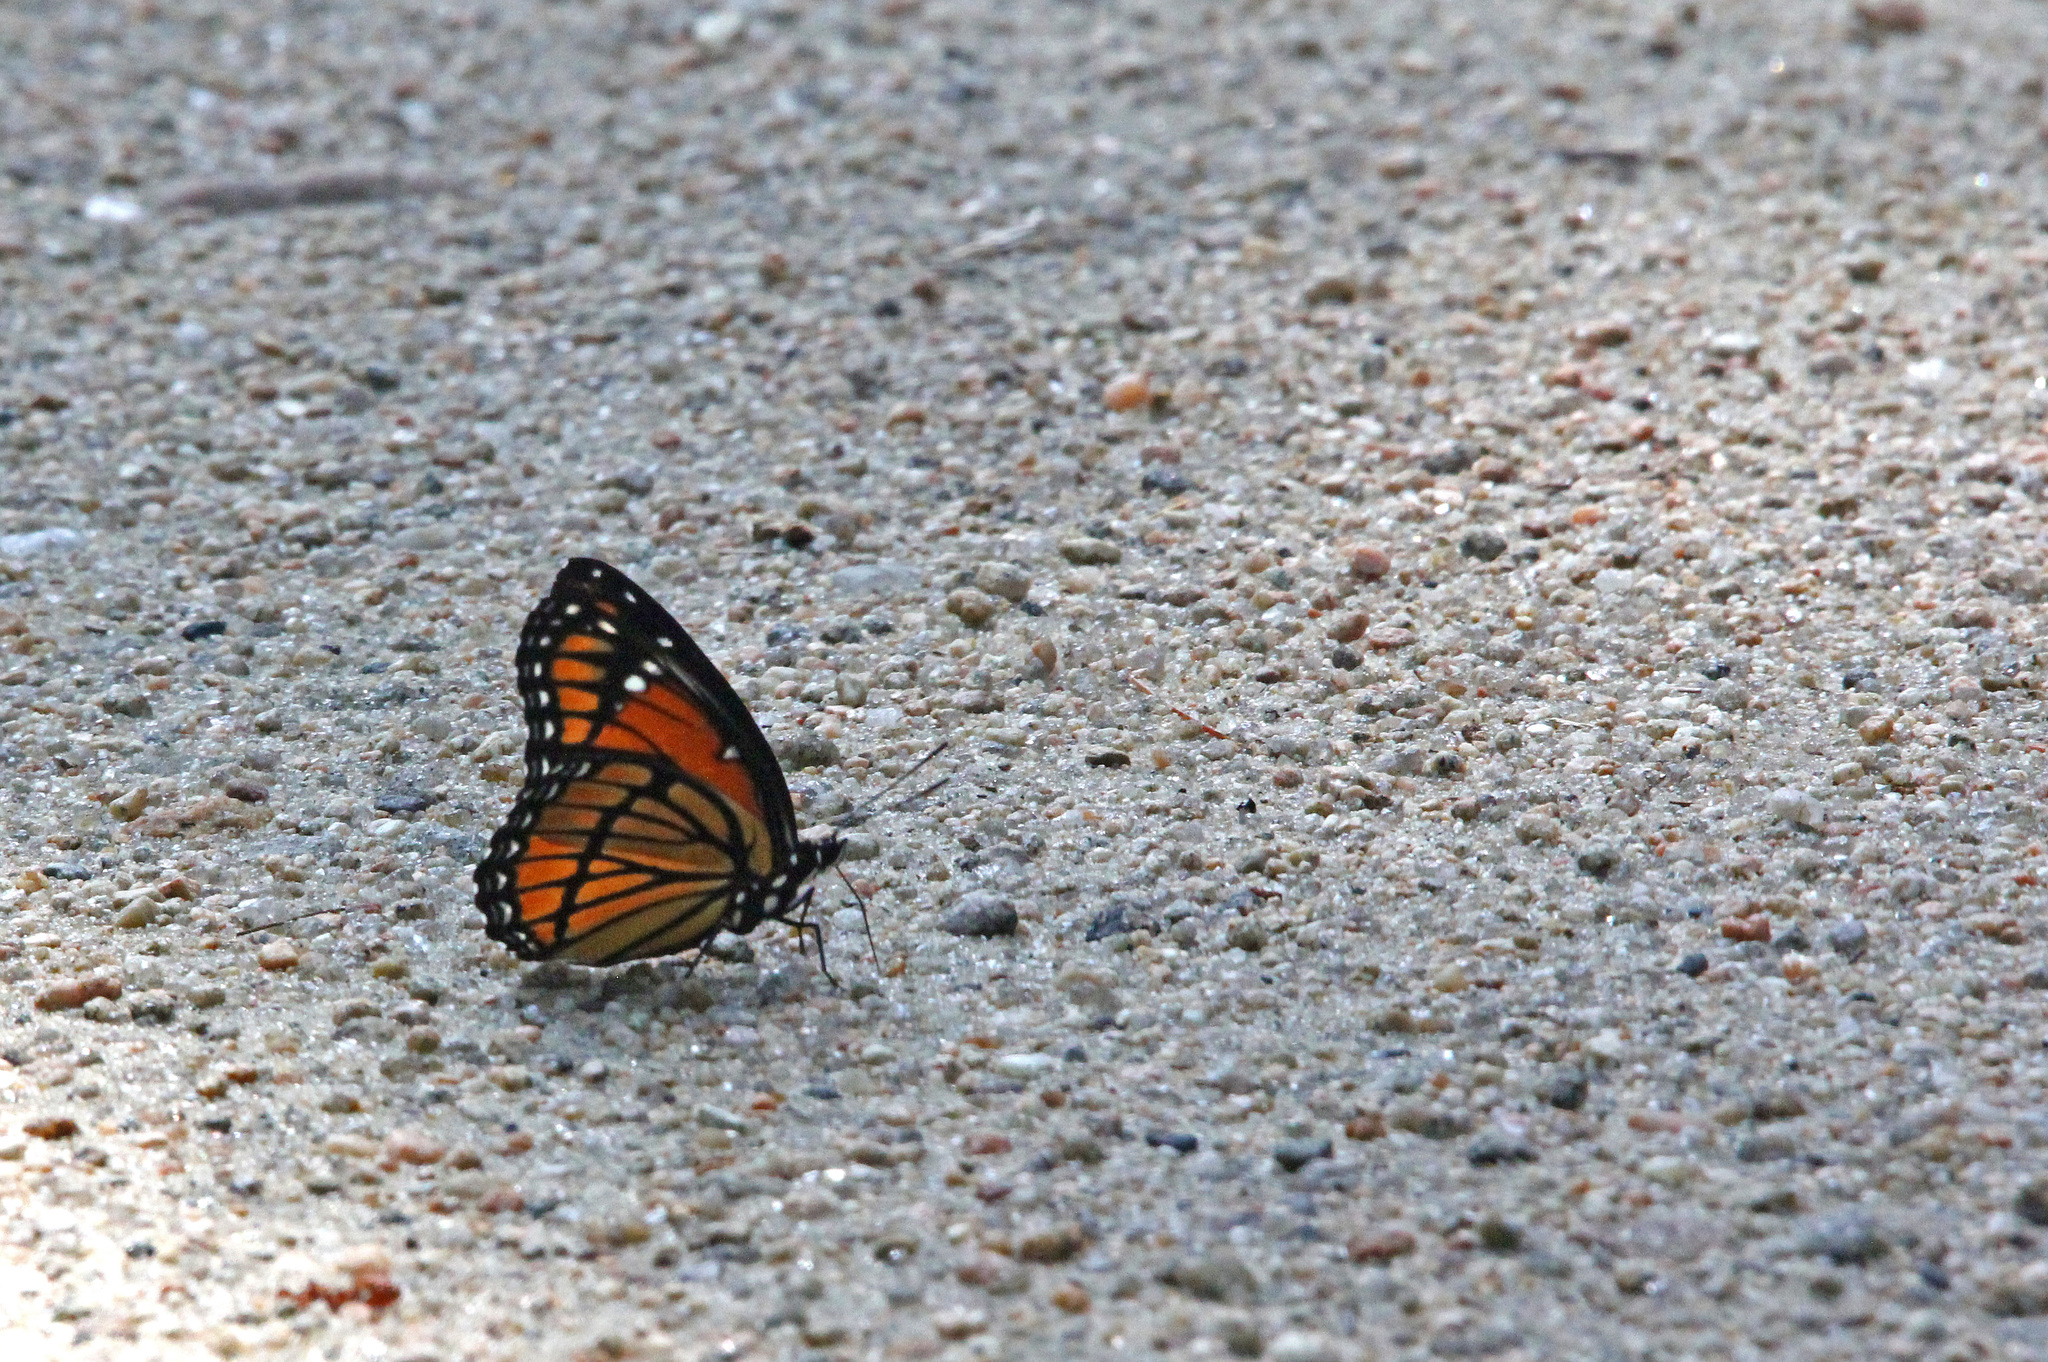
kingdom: Animalia
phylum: Arthropoda
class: Insecta
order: Lepidoptera
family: Nymphalidae
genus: Limenitis
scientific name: Limenitis archippus
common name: Viceroy
